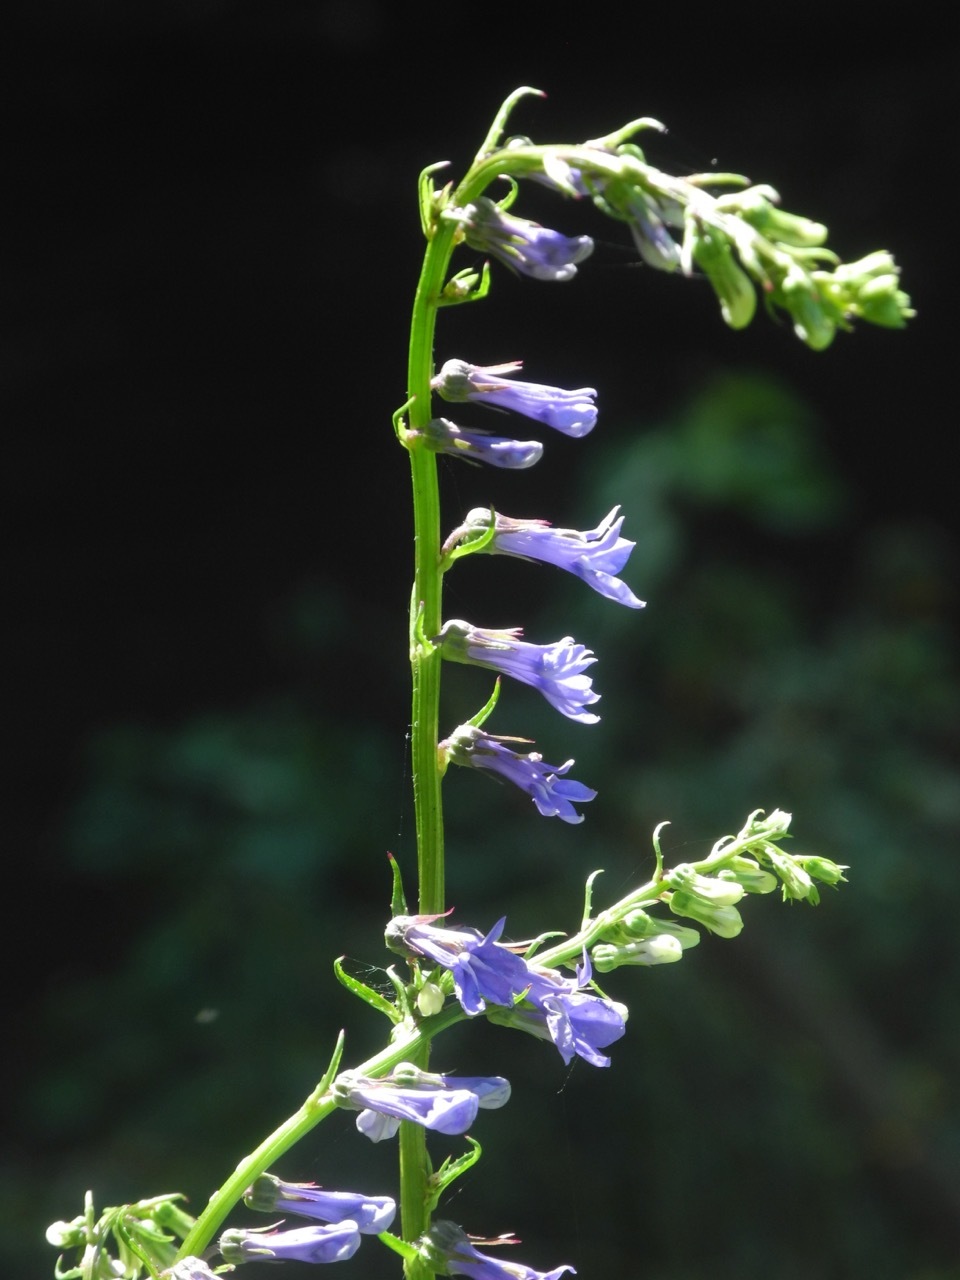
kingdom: Plantae
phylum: Tracheophyta
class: Magnoliopsida
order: Asterales
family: Campanulaceae
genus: Lobelia
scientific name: Lobelia amoena
